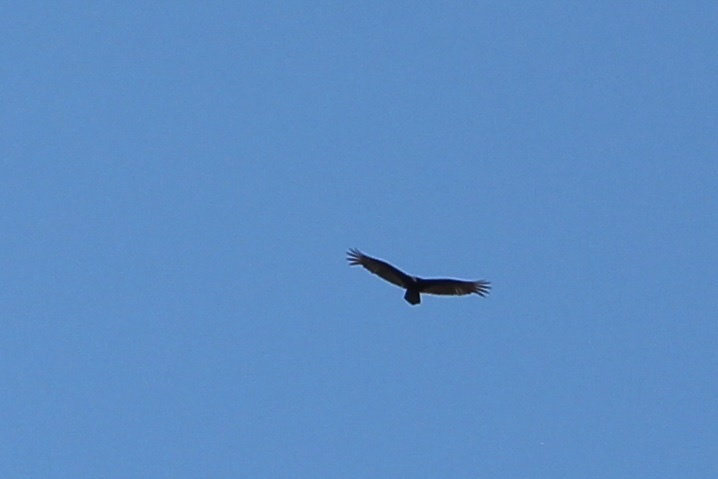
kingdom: Animalia
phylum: Chordata
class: Aves
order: Accipitriformes
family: Cathartidae
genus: Cathartes
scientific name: Cathartes aura
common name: Turkey vulture
